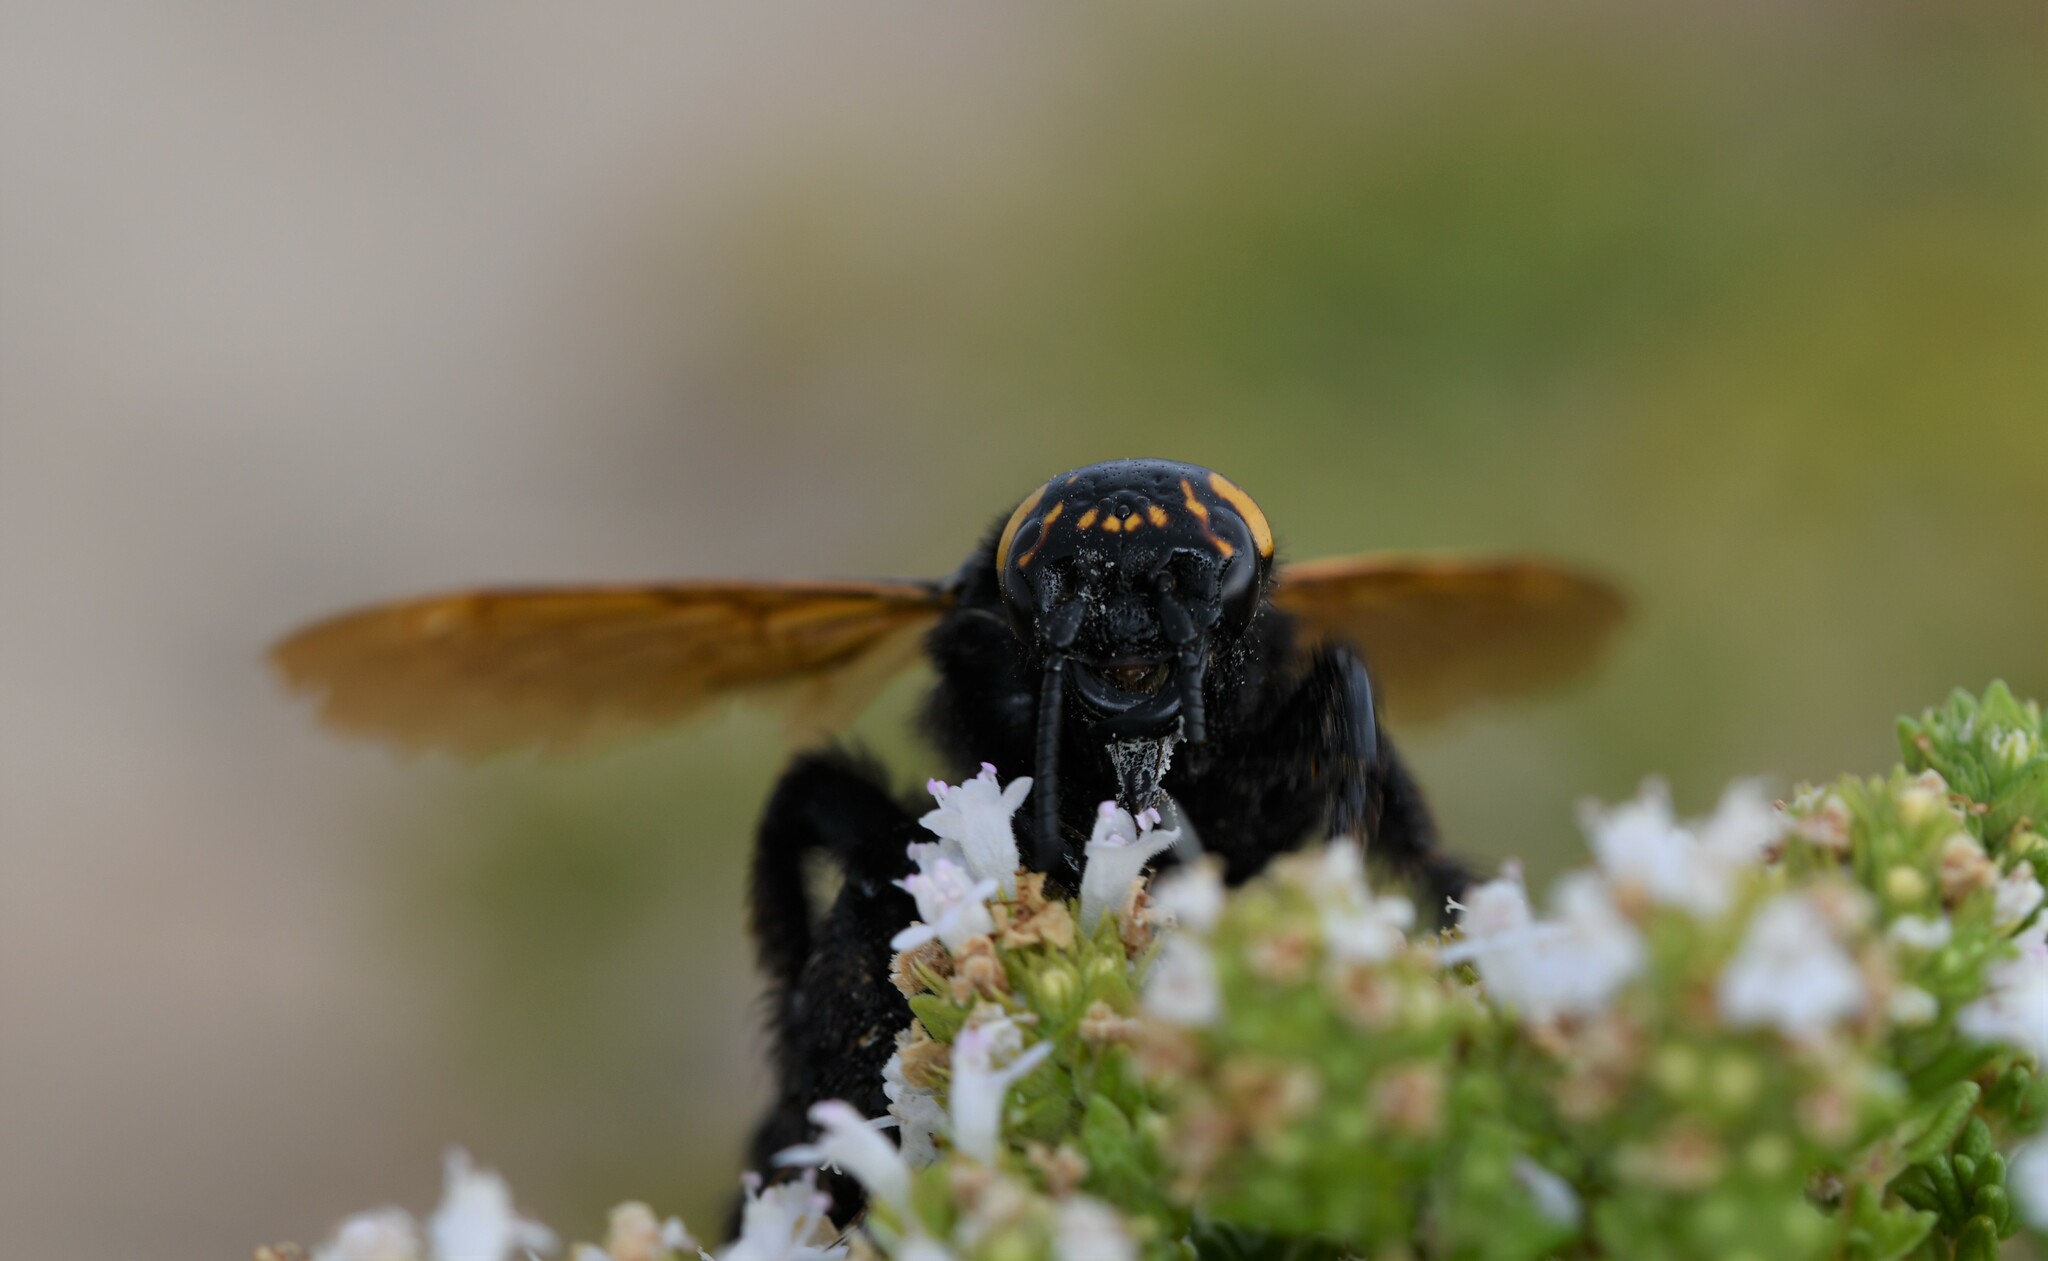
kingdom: Animalia
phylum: Arthropoda
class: Insecta
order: Hymenoptera
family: Scoliidae
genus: Megascolia
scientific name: Megascolia maculata
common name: Mammoth wasp
